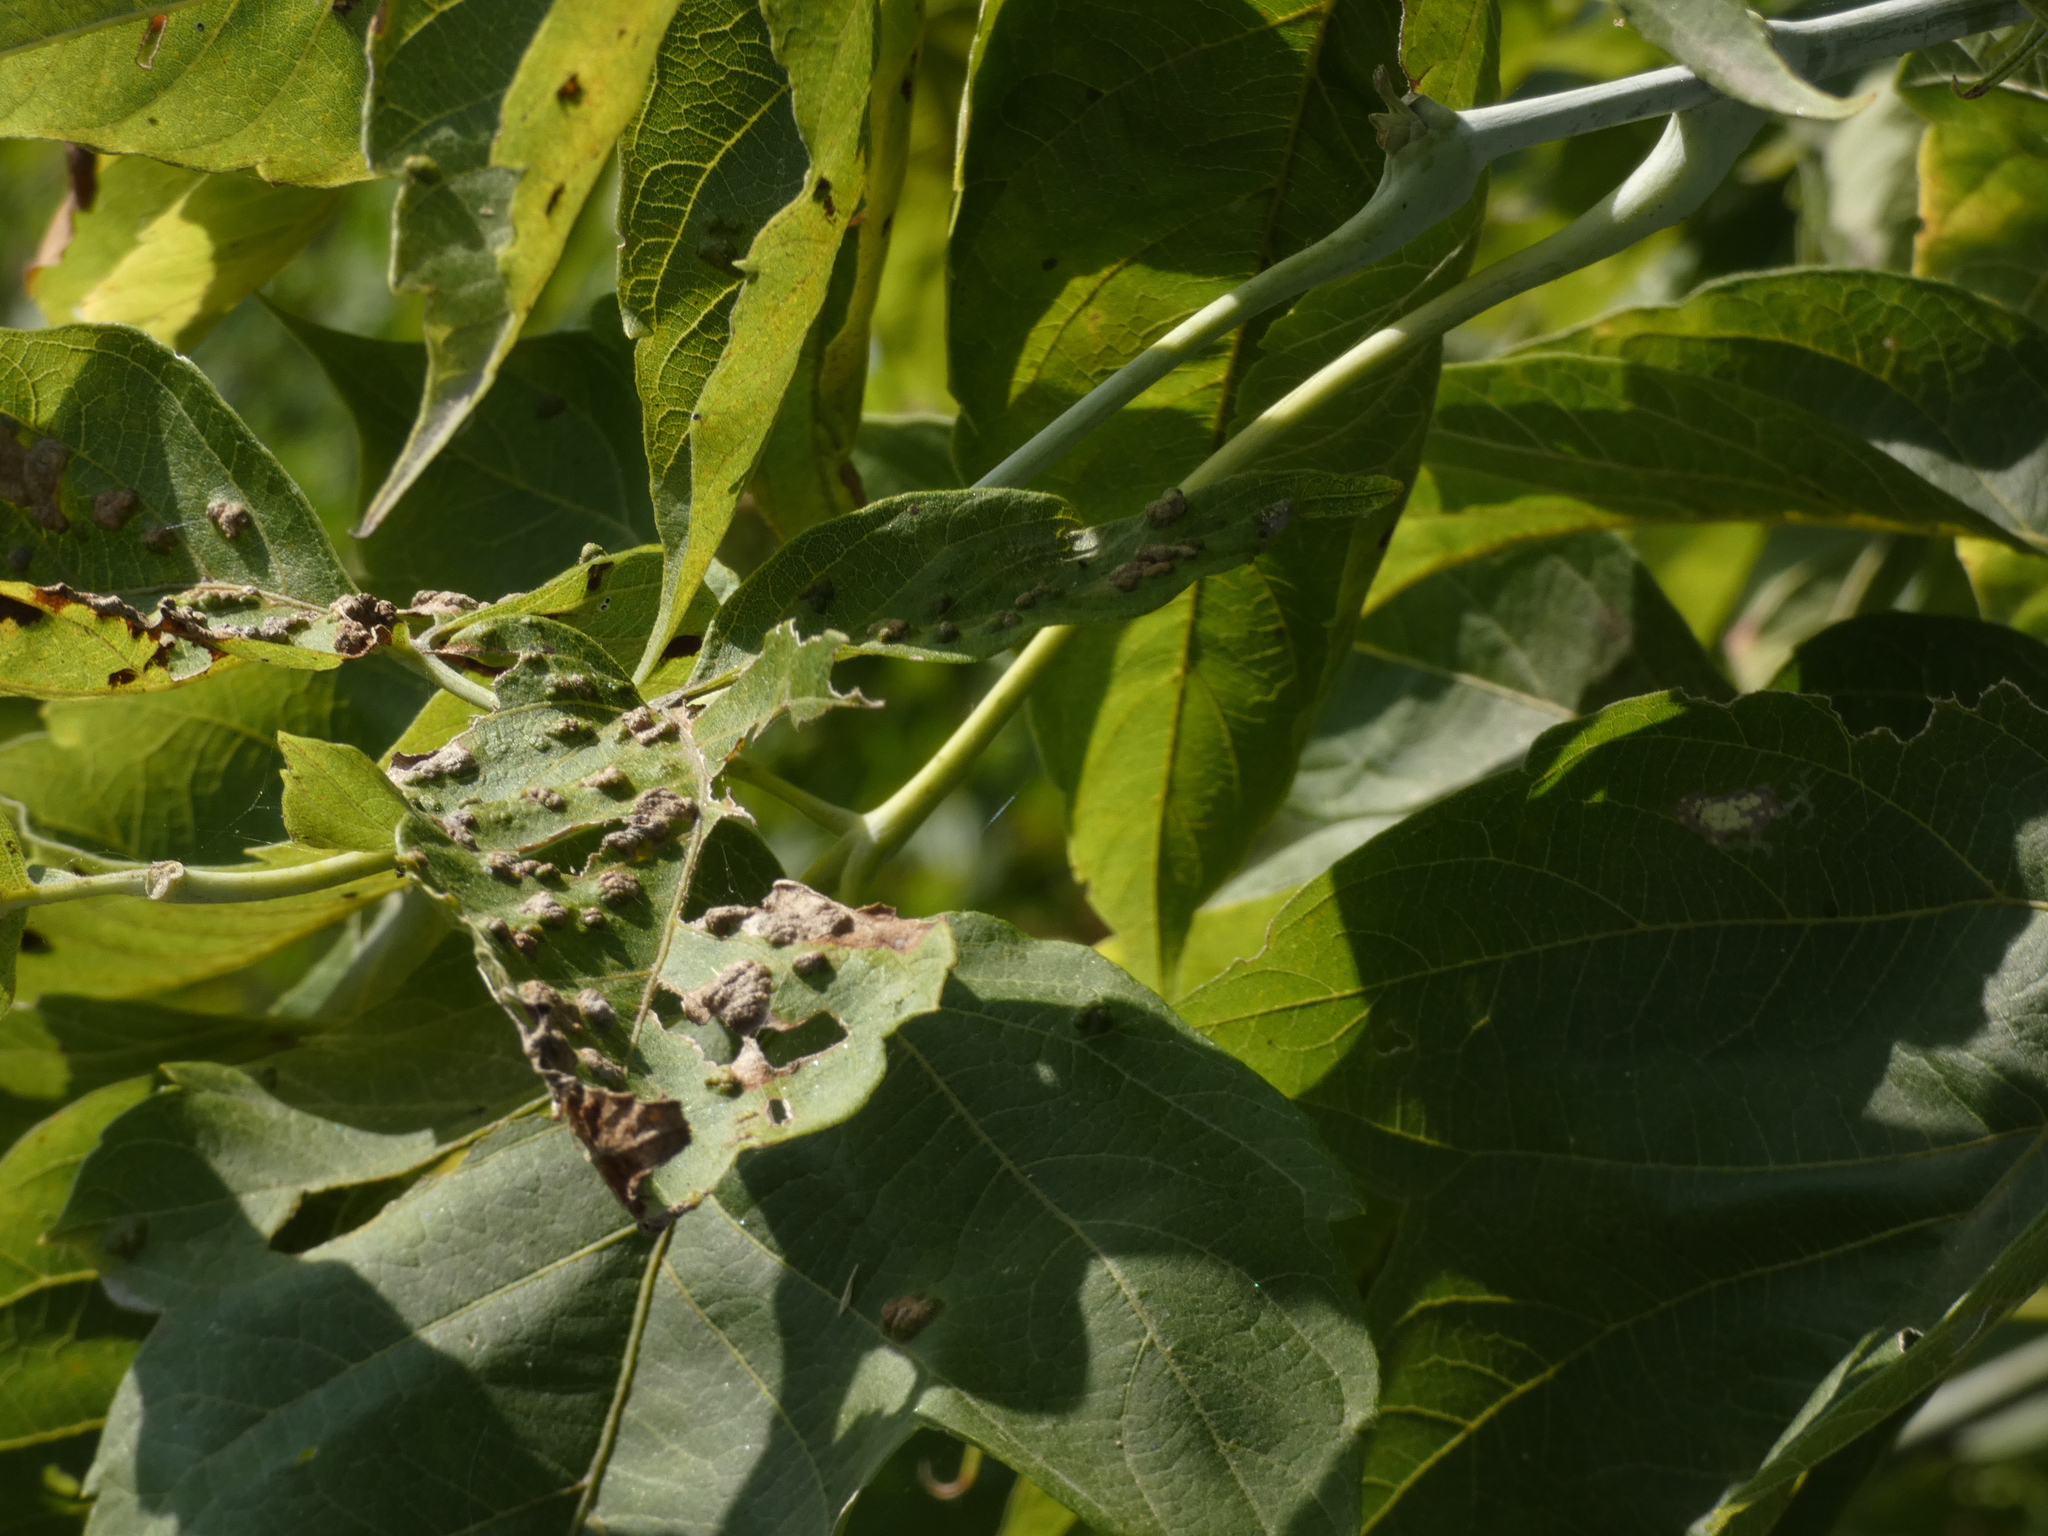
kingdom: Animalia
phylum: Arthropoda
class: Arachnida
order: Trombidiformes
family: Eriophyidae
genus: Aceria
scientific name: Aceria
